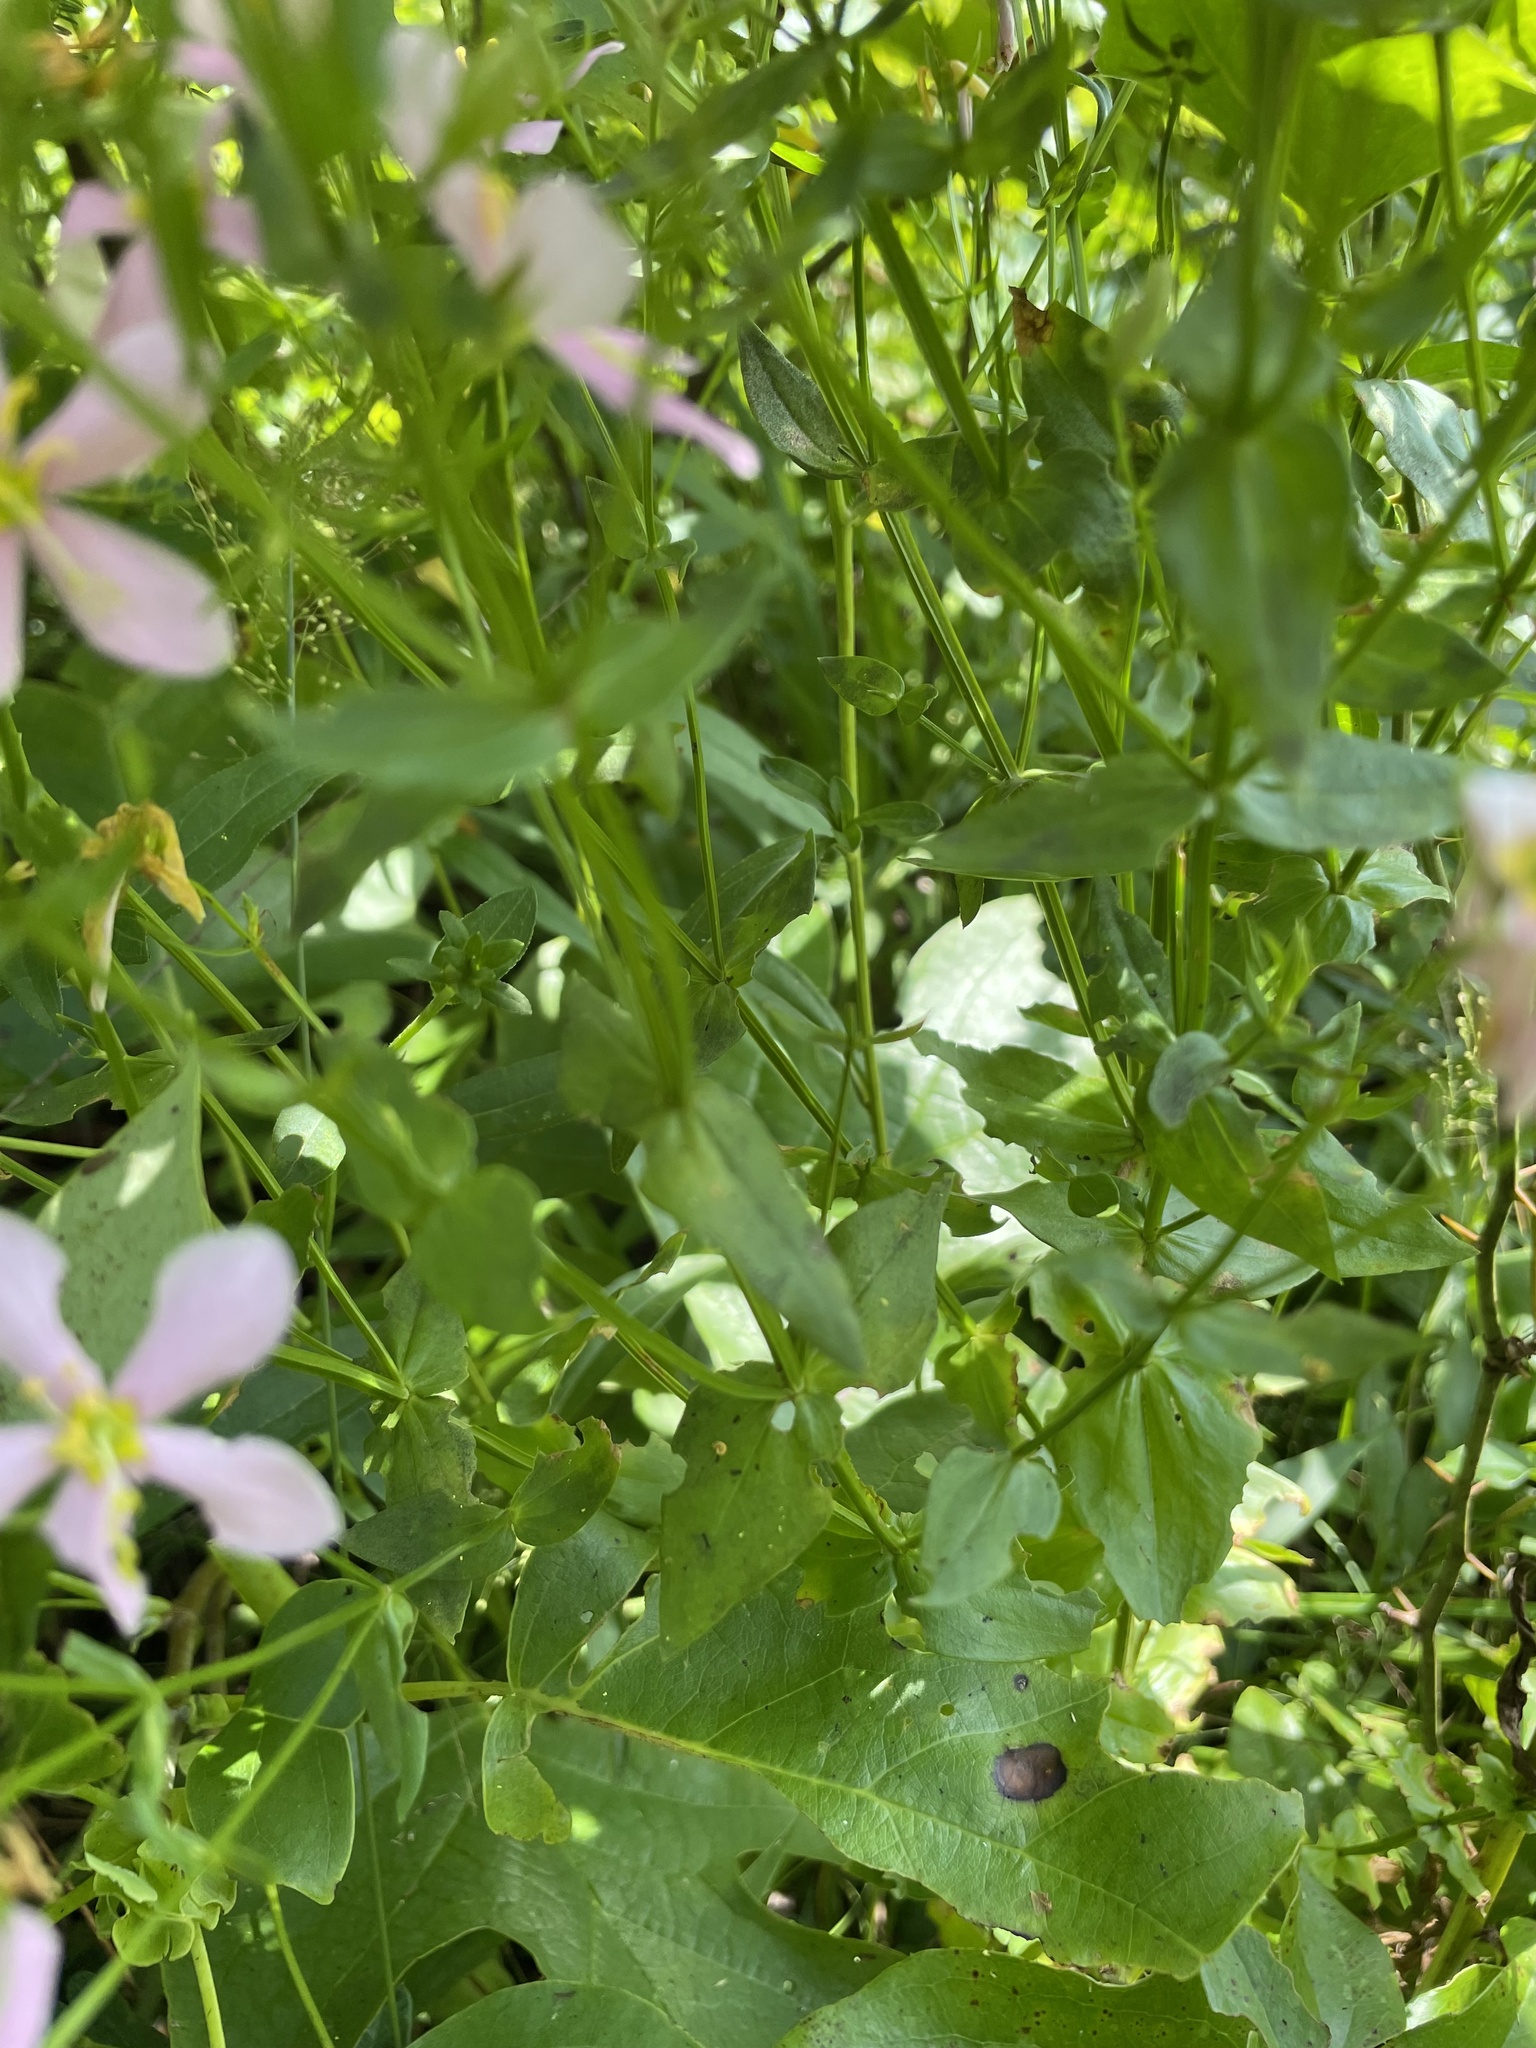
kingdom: Plantae
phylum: Tracheophyta
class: Magnoliopsida
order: Gentianales
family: Gentianaceae
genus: Sabatia
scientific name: Sabatia angularis
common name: Rose-pink
